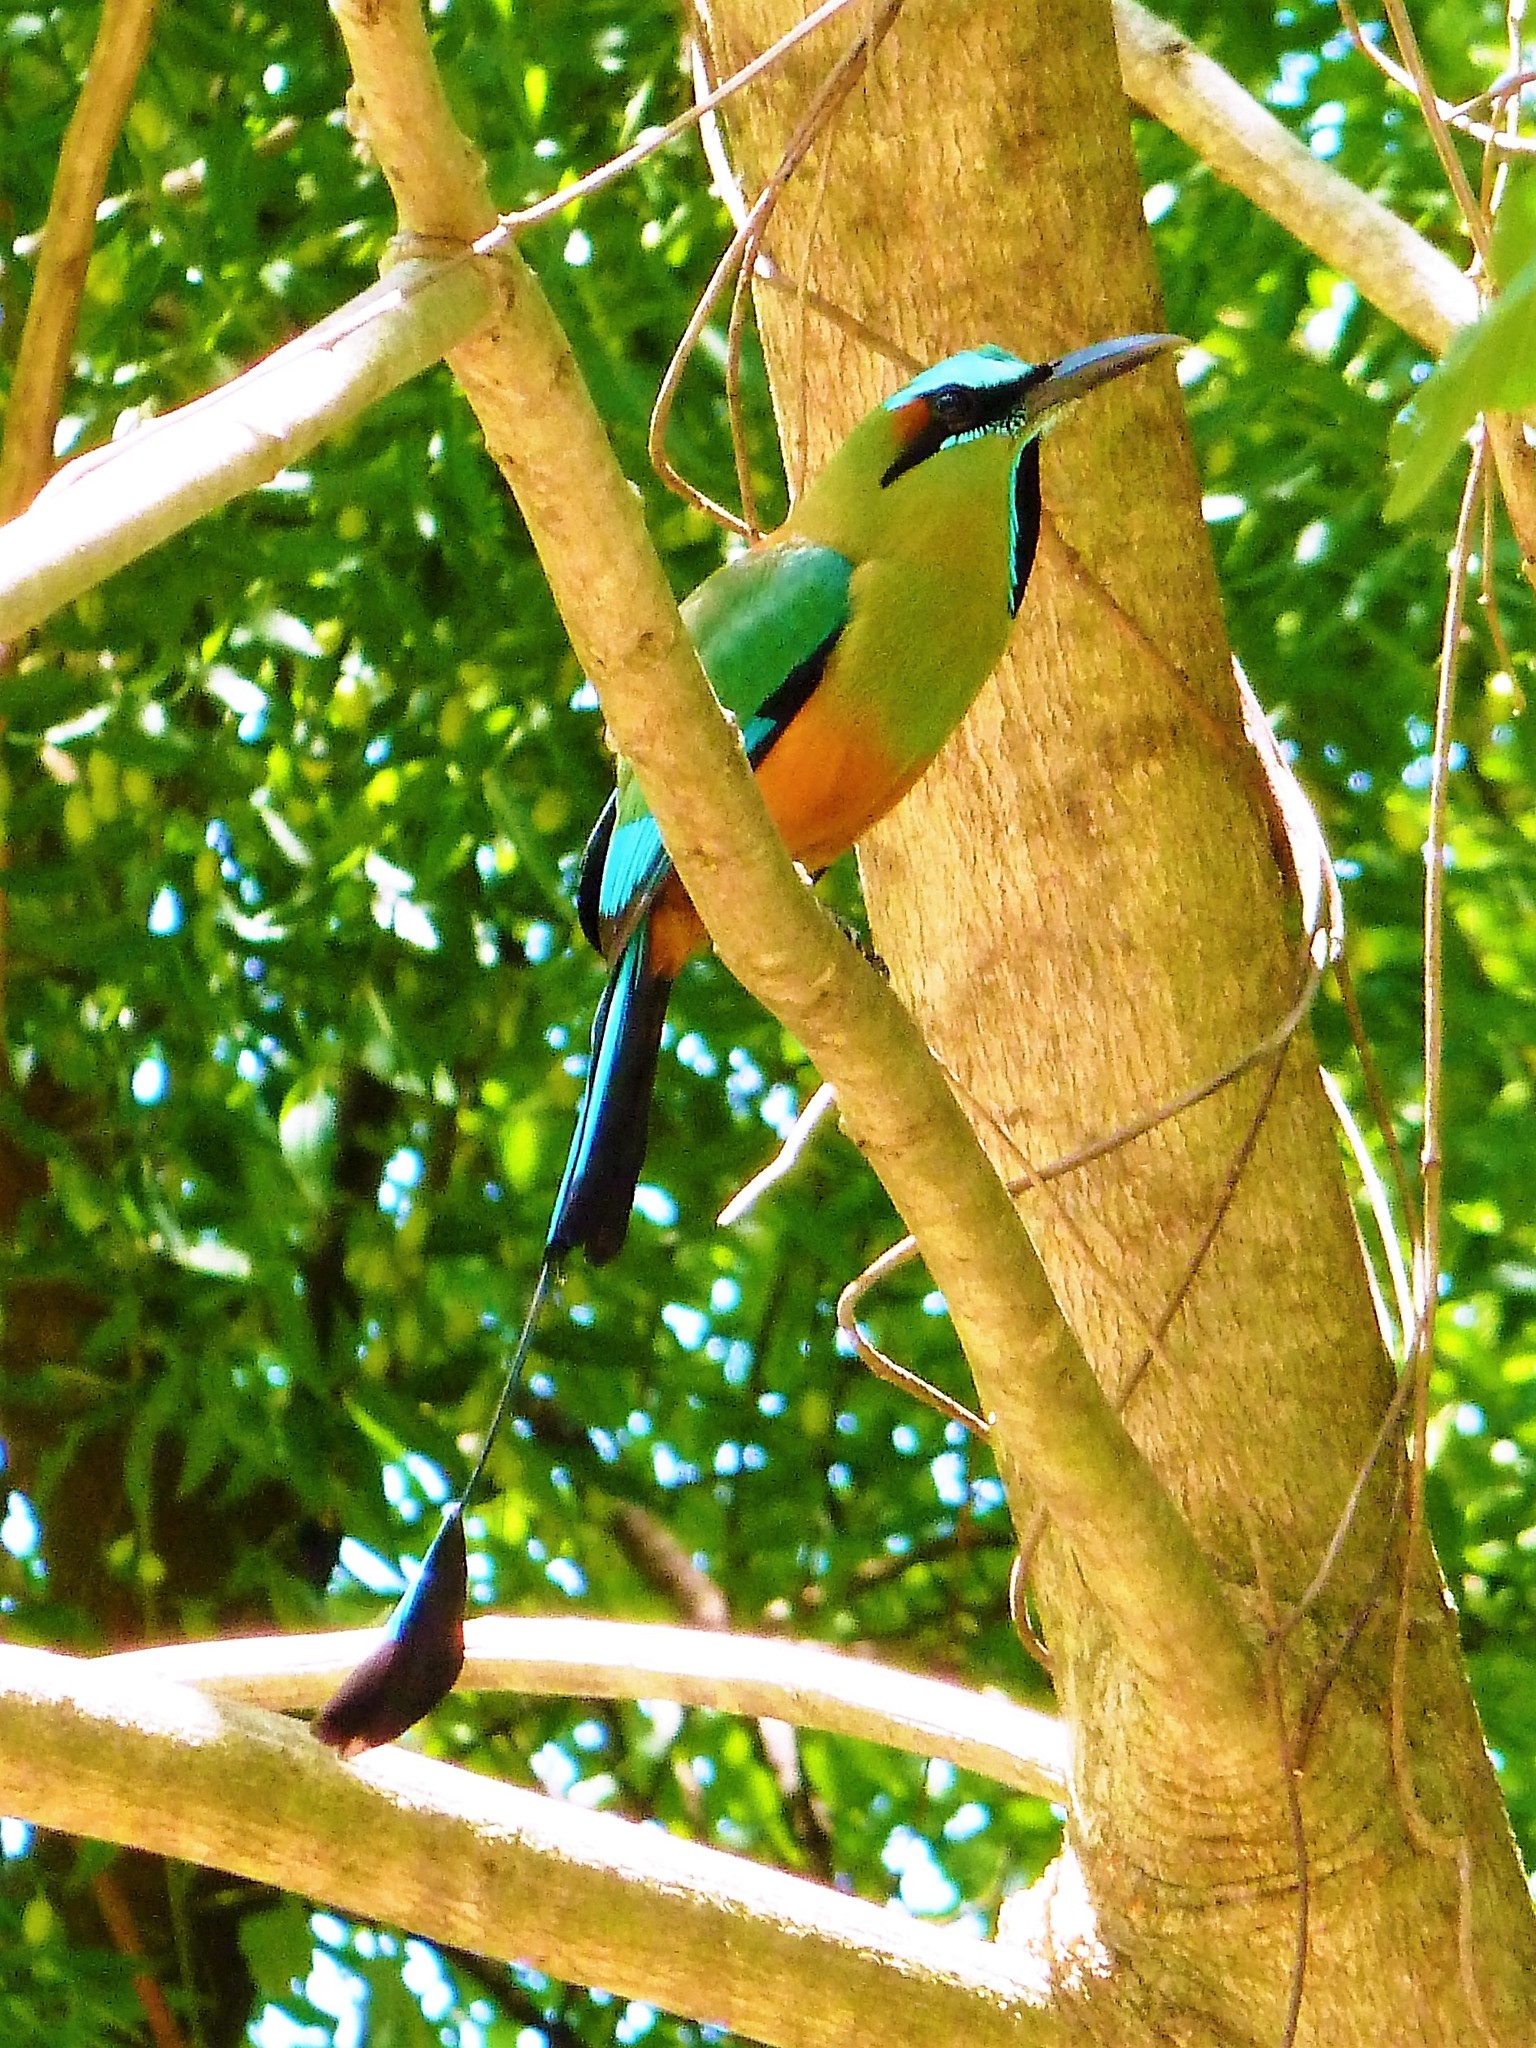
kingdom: Animalia
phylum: Chordata
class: Aves
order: Coraciiformes
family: Momotidae
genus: Eumomota
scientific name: Eumomota superciliosa
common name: Turquoise-browed motmot
